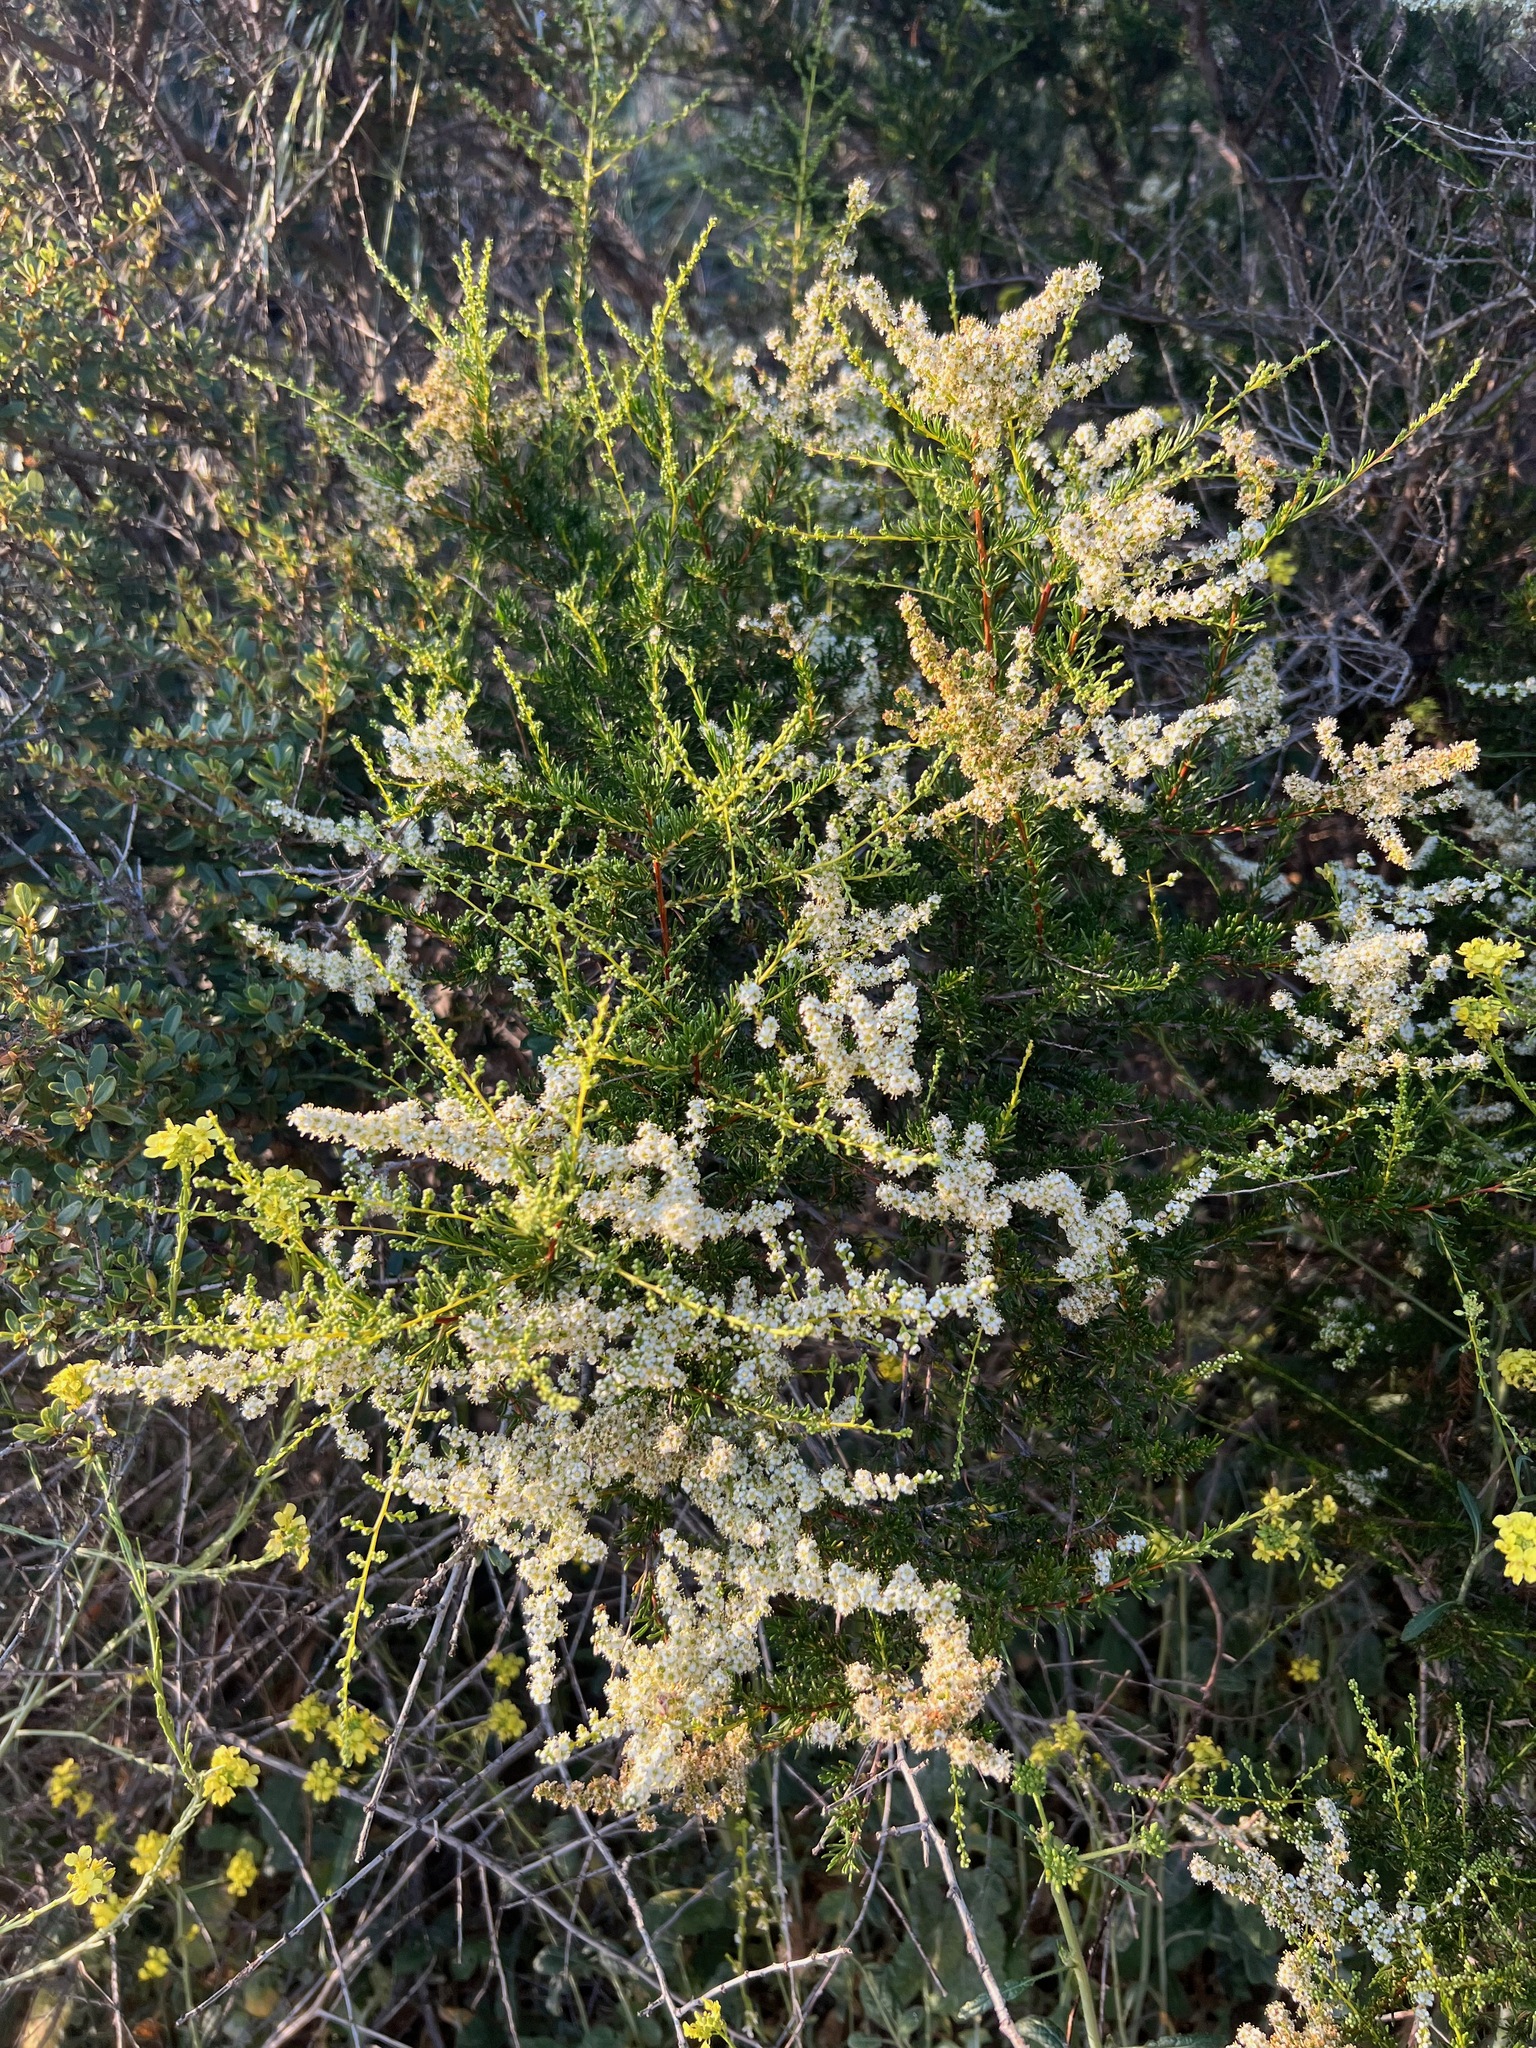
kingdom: Plantae
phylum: Tracheophyta
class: Magnoliopsida
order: Rosales
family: Rosaceae
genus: Adenostoma
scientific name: Adenostoma fasciculatum
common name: Chamise
